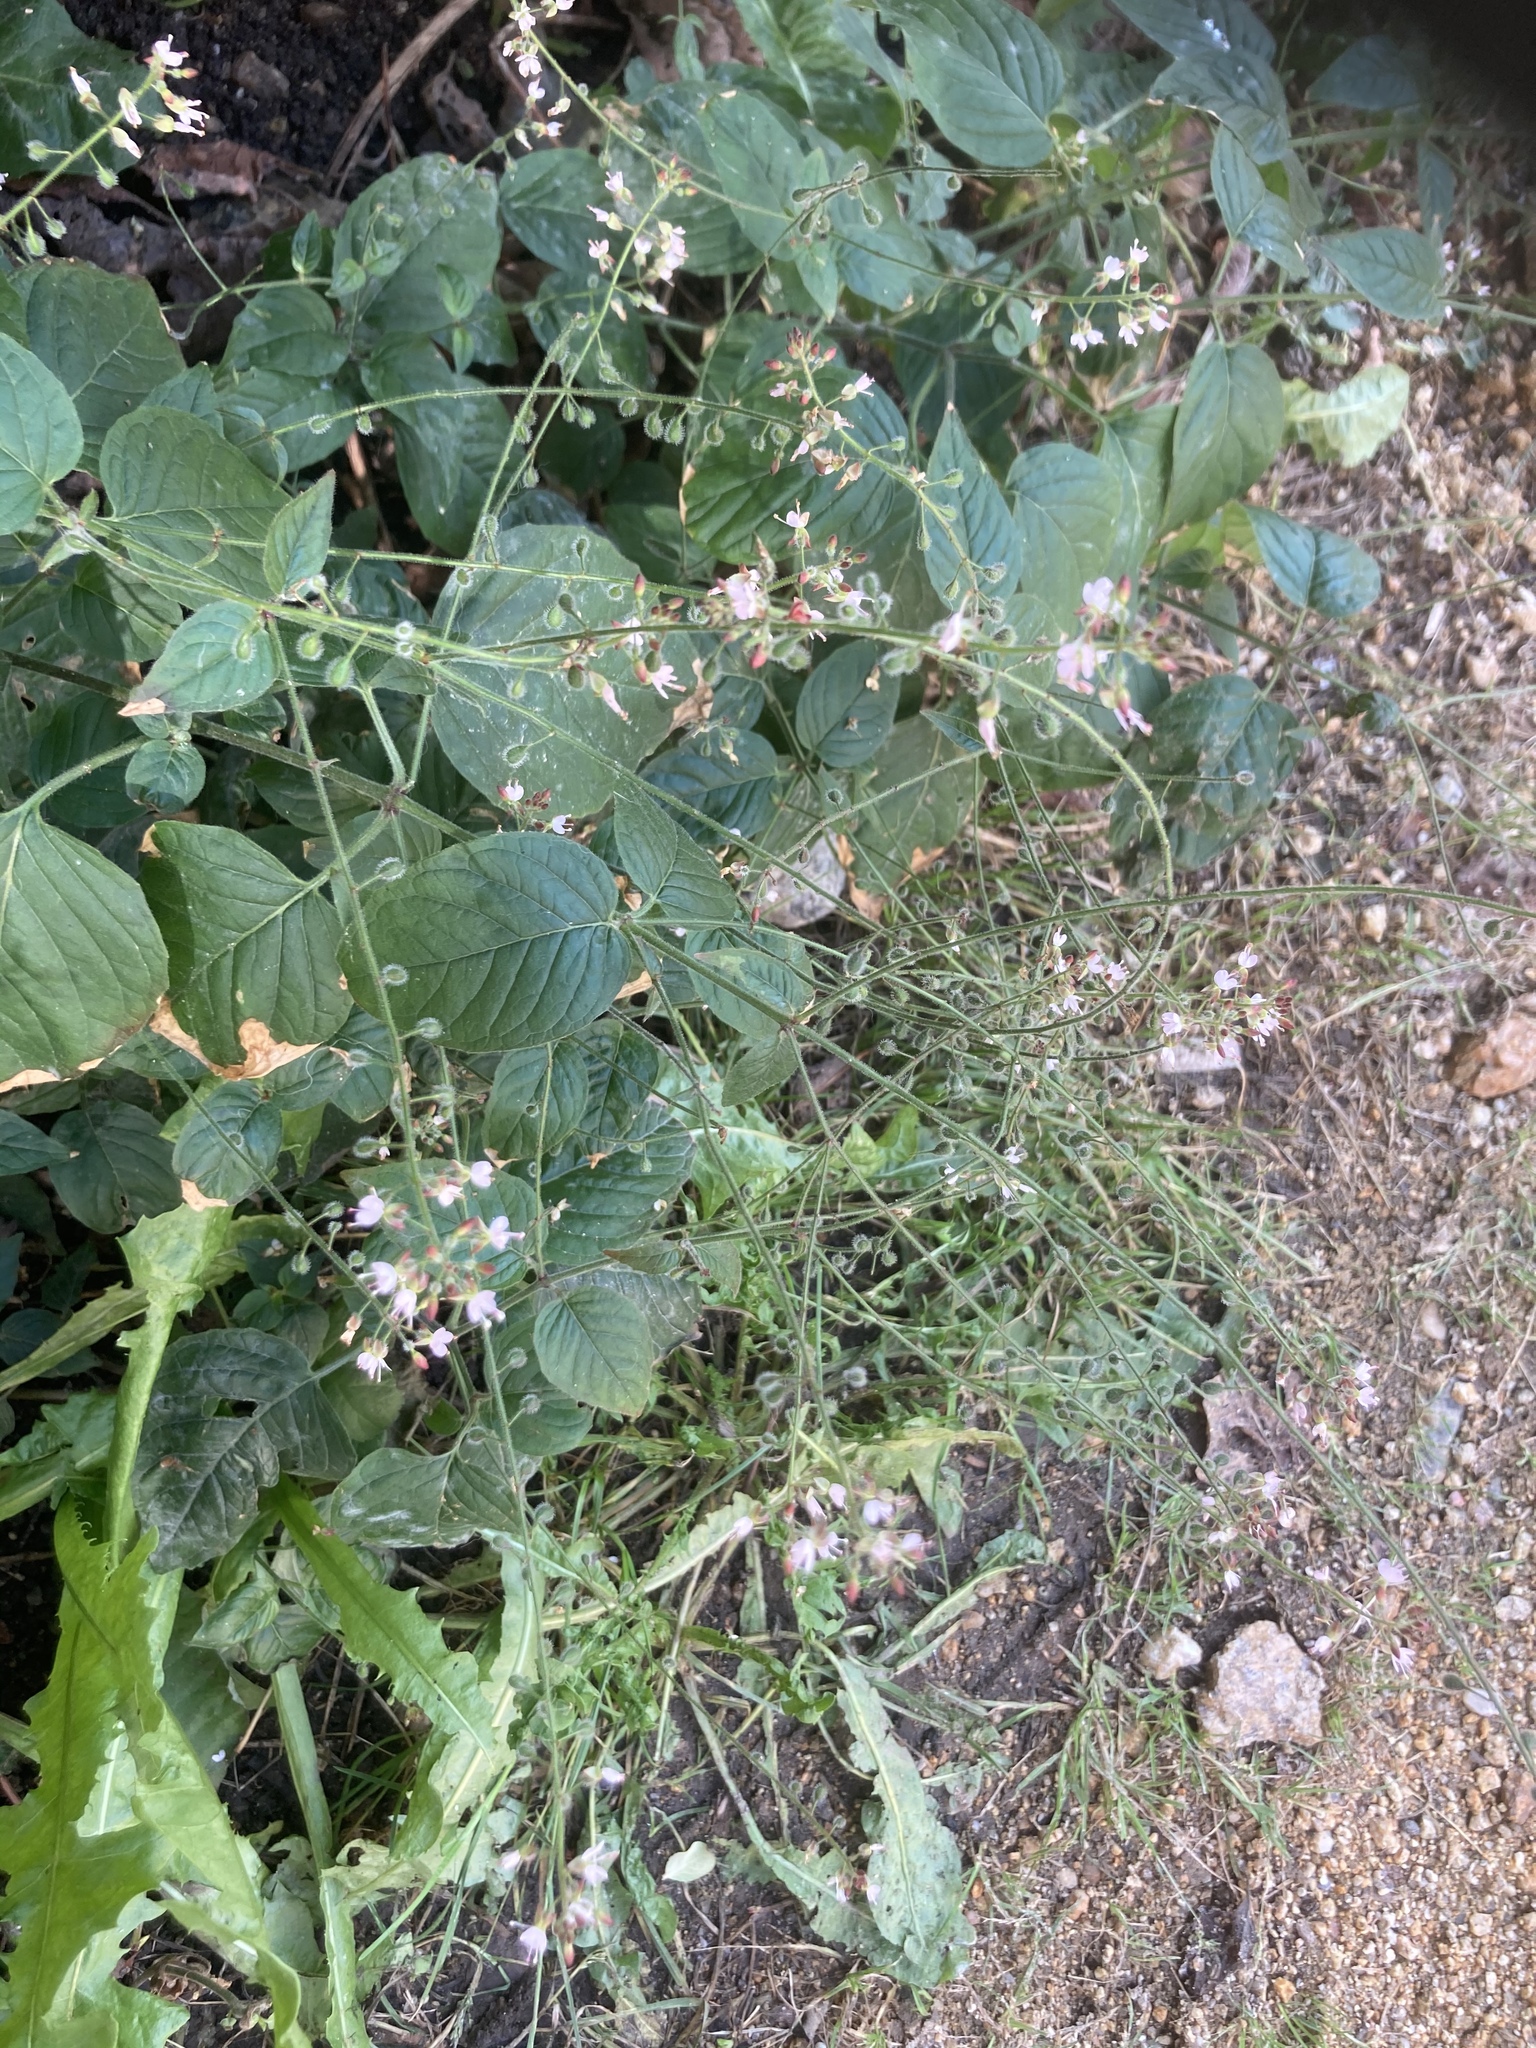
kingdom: Plantae
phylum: Tracheophyta
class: Magnoliopsida
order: Myrtales
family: Onagraceae
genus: Circaea
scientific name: Circaea lutetiana
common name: Enchanter's-nightshade
